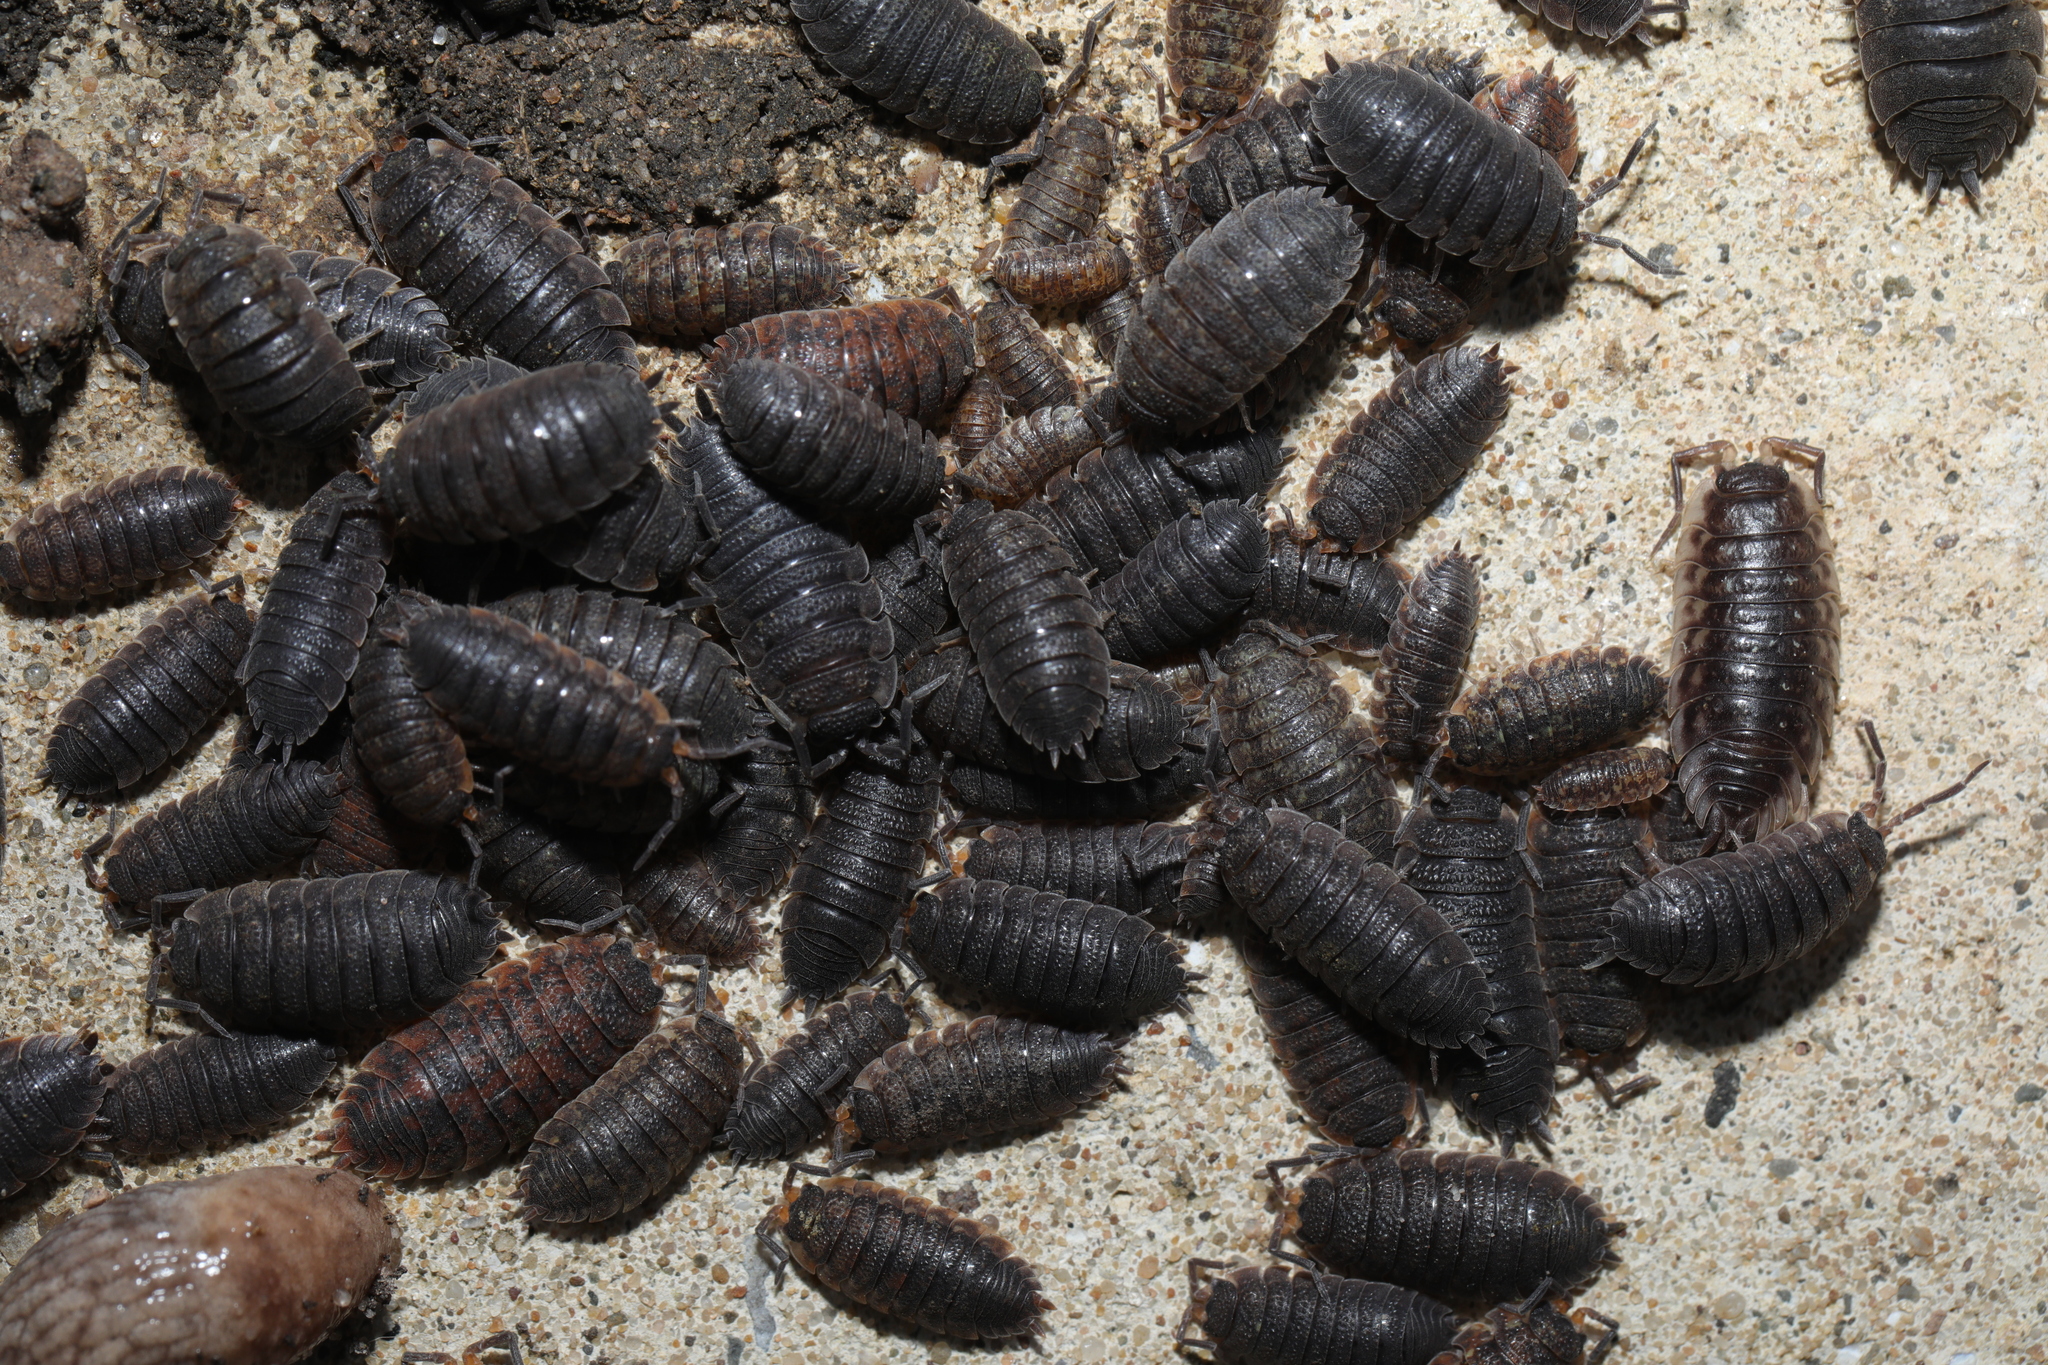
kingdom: Animalia
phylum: Arthropoda
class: Malacostraca
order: Isopoda
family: Porcellionidae
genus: Porcellio
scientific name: Porcellio scaber
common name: Common rough woodlouse
